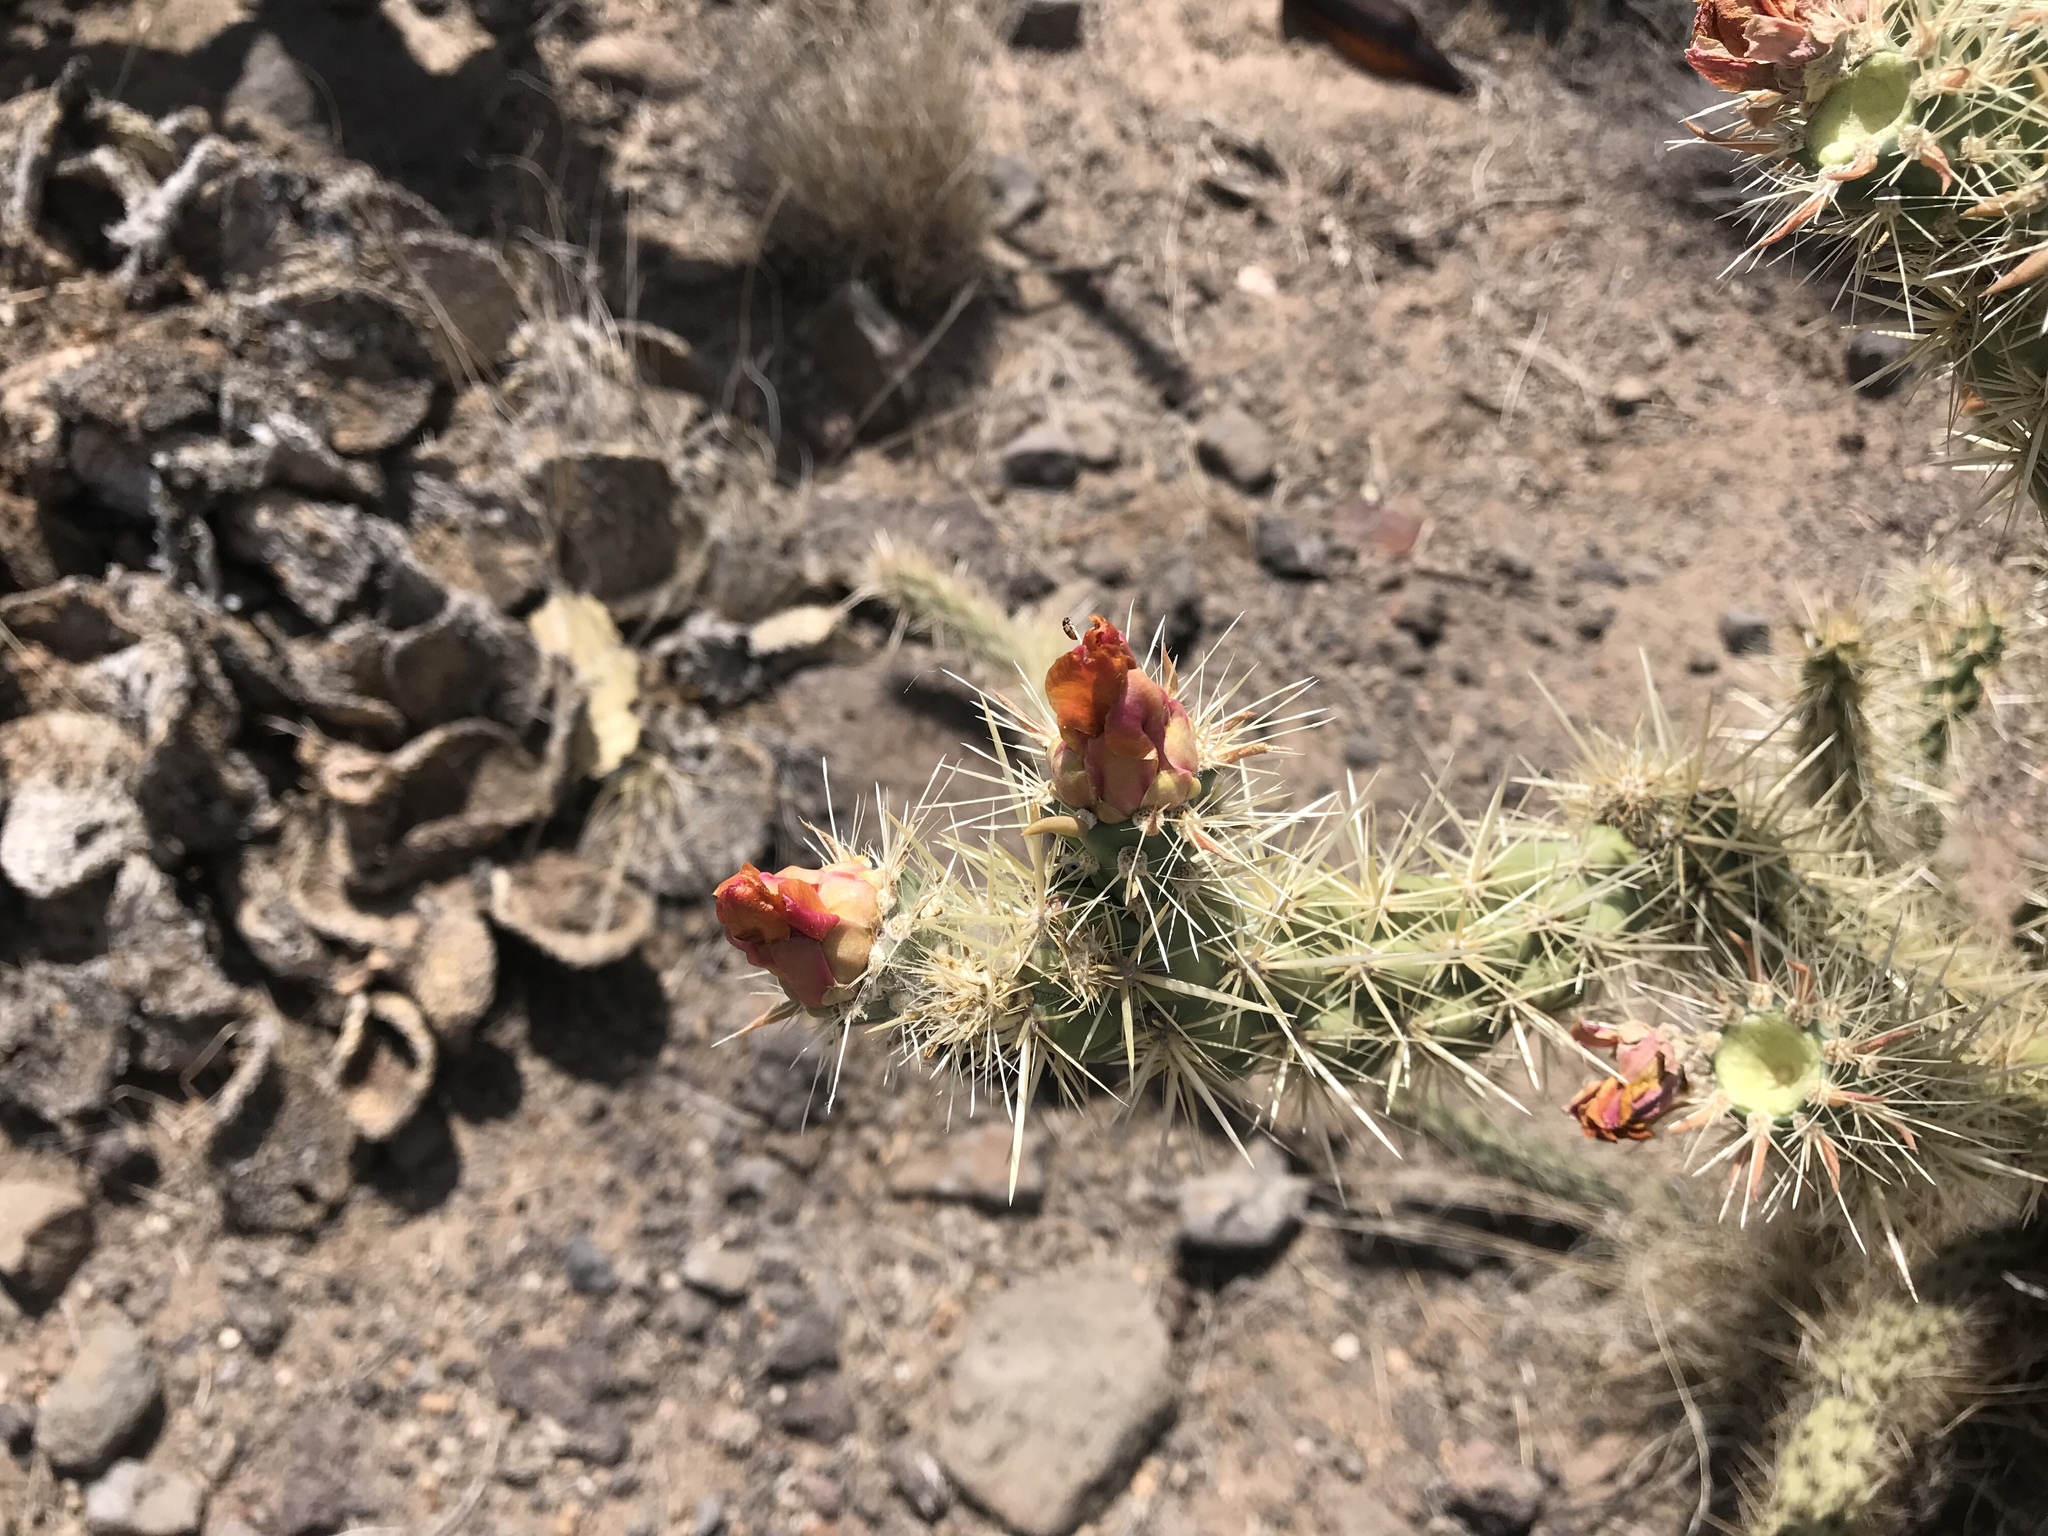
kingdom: Plantae
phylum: Tracheophyta
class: Magnoliopsida
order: Caryophyllales
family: Cactaceae
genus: Cylindropuntia
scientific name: Cylindropuntia acanthocarpa
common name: Buckhorn cholla
